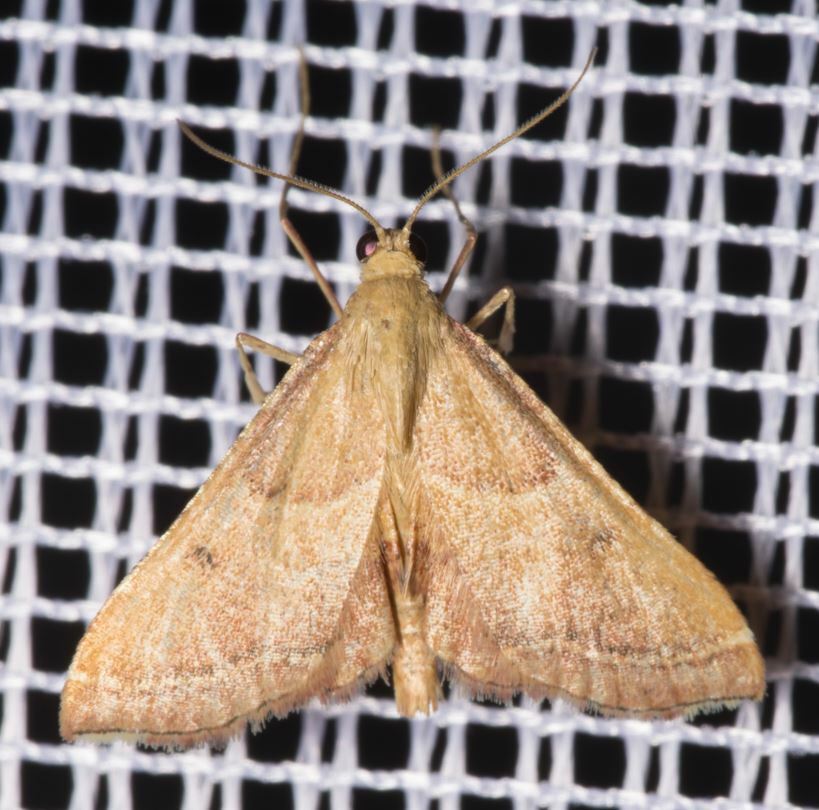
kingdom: Animalia
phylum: Arthropoda
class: Insecta
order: Lepidoptera
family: Pyralidae
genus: Endotricha
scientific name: Endotricha flammealis
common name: Rosy tabby
